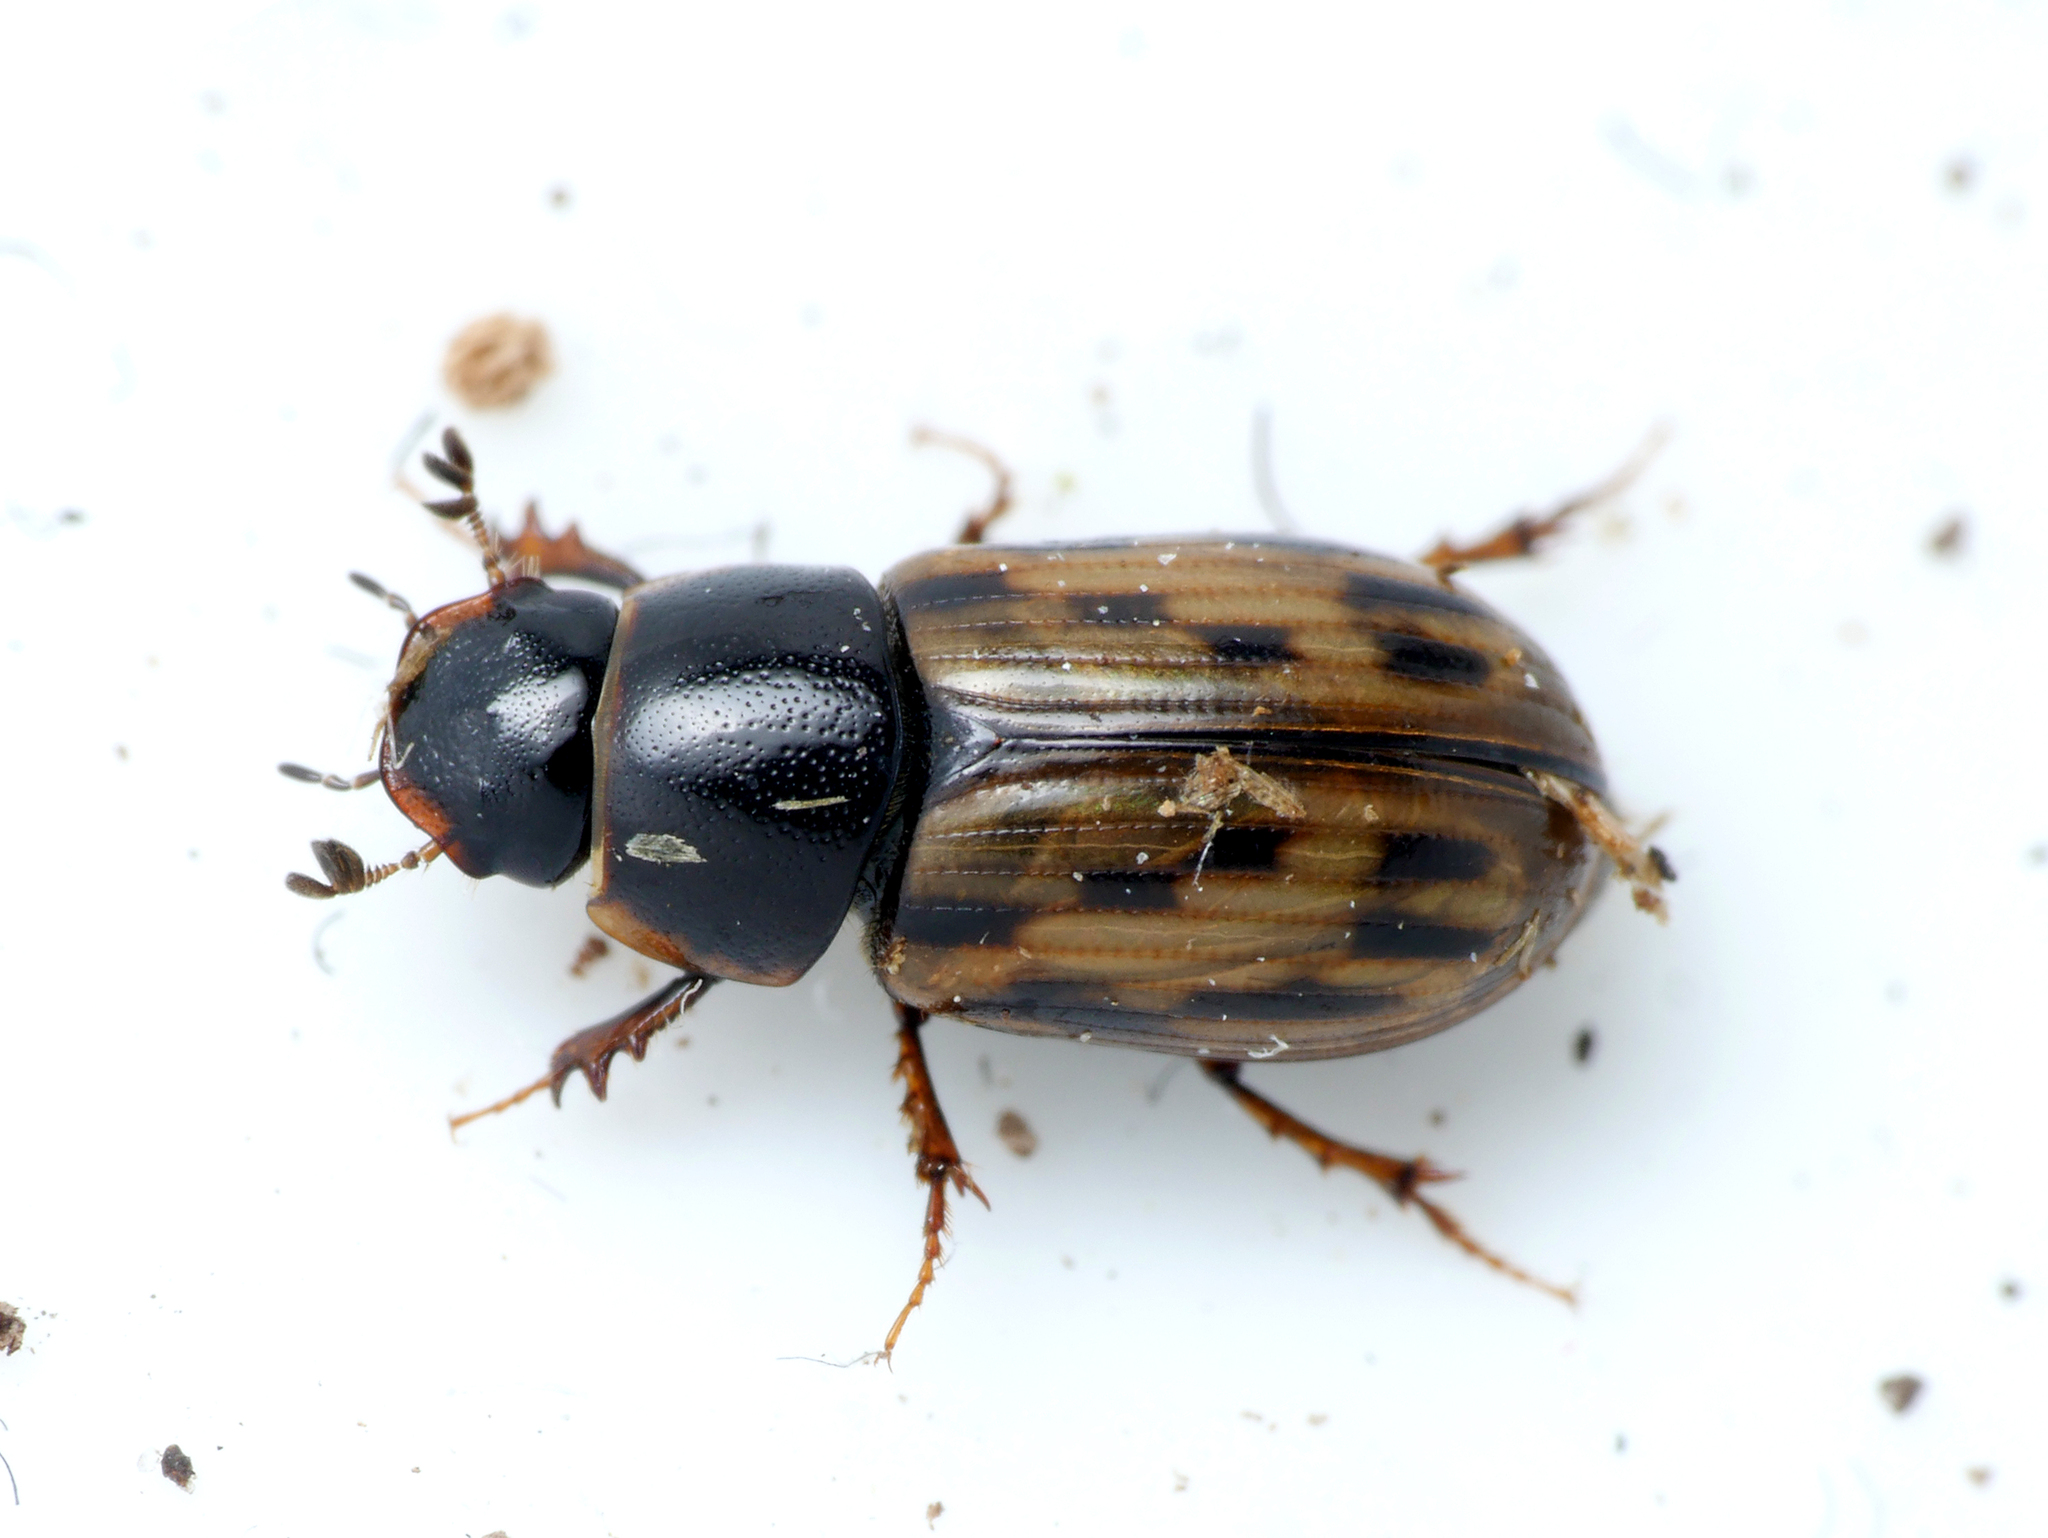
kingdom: Animalia
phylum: Arthropoda
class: Insecta
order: Coleoptera
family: Scarabaeidae
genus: Chilothorax
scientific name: Chilothorax conspurcatus
